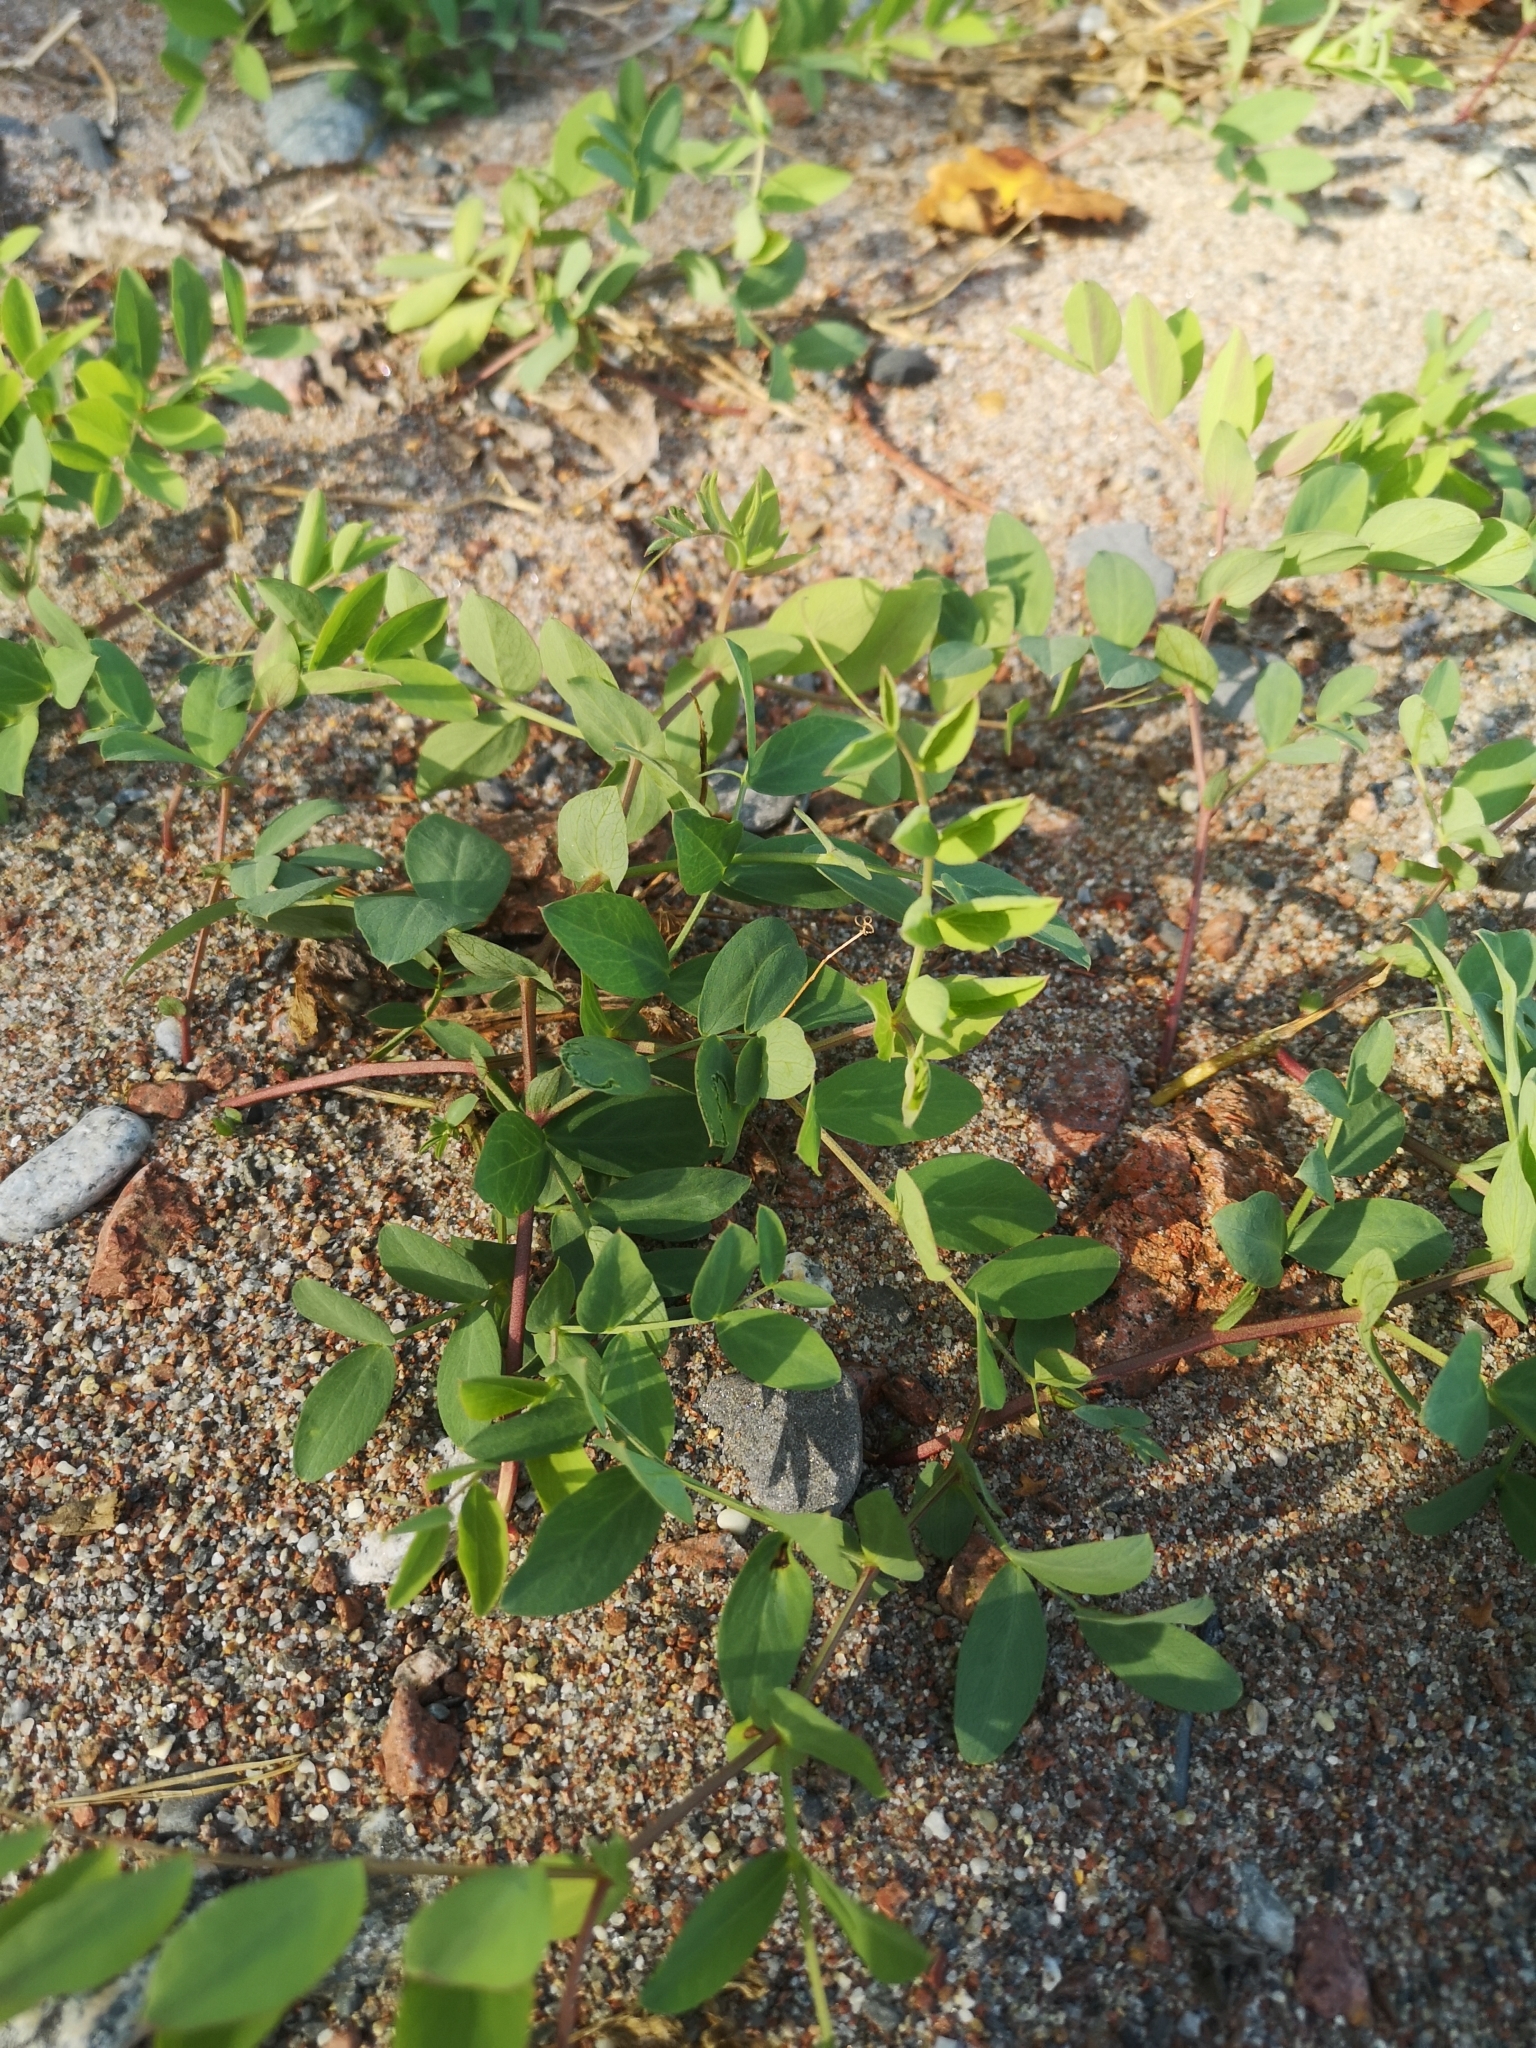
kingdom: Plantae
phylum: Tracheophyta
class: Magnoliopsida
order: Fabales
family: Fabaceae
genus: Lathyrus
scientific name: Lathyrus japonicus
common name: Sea pea
